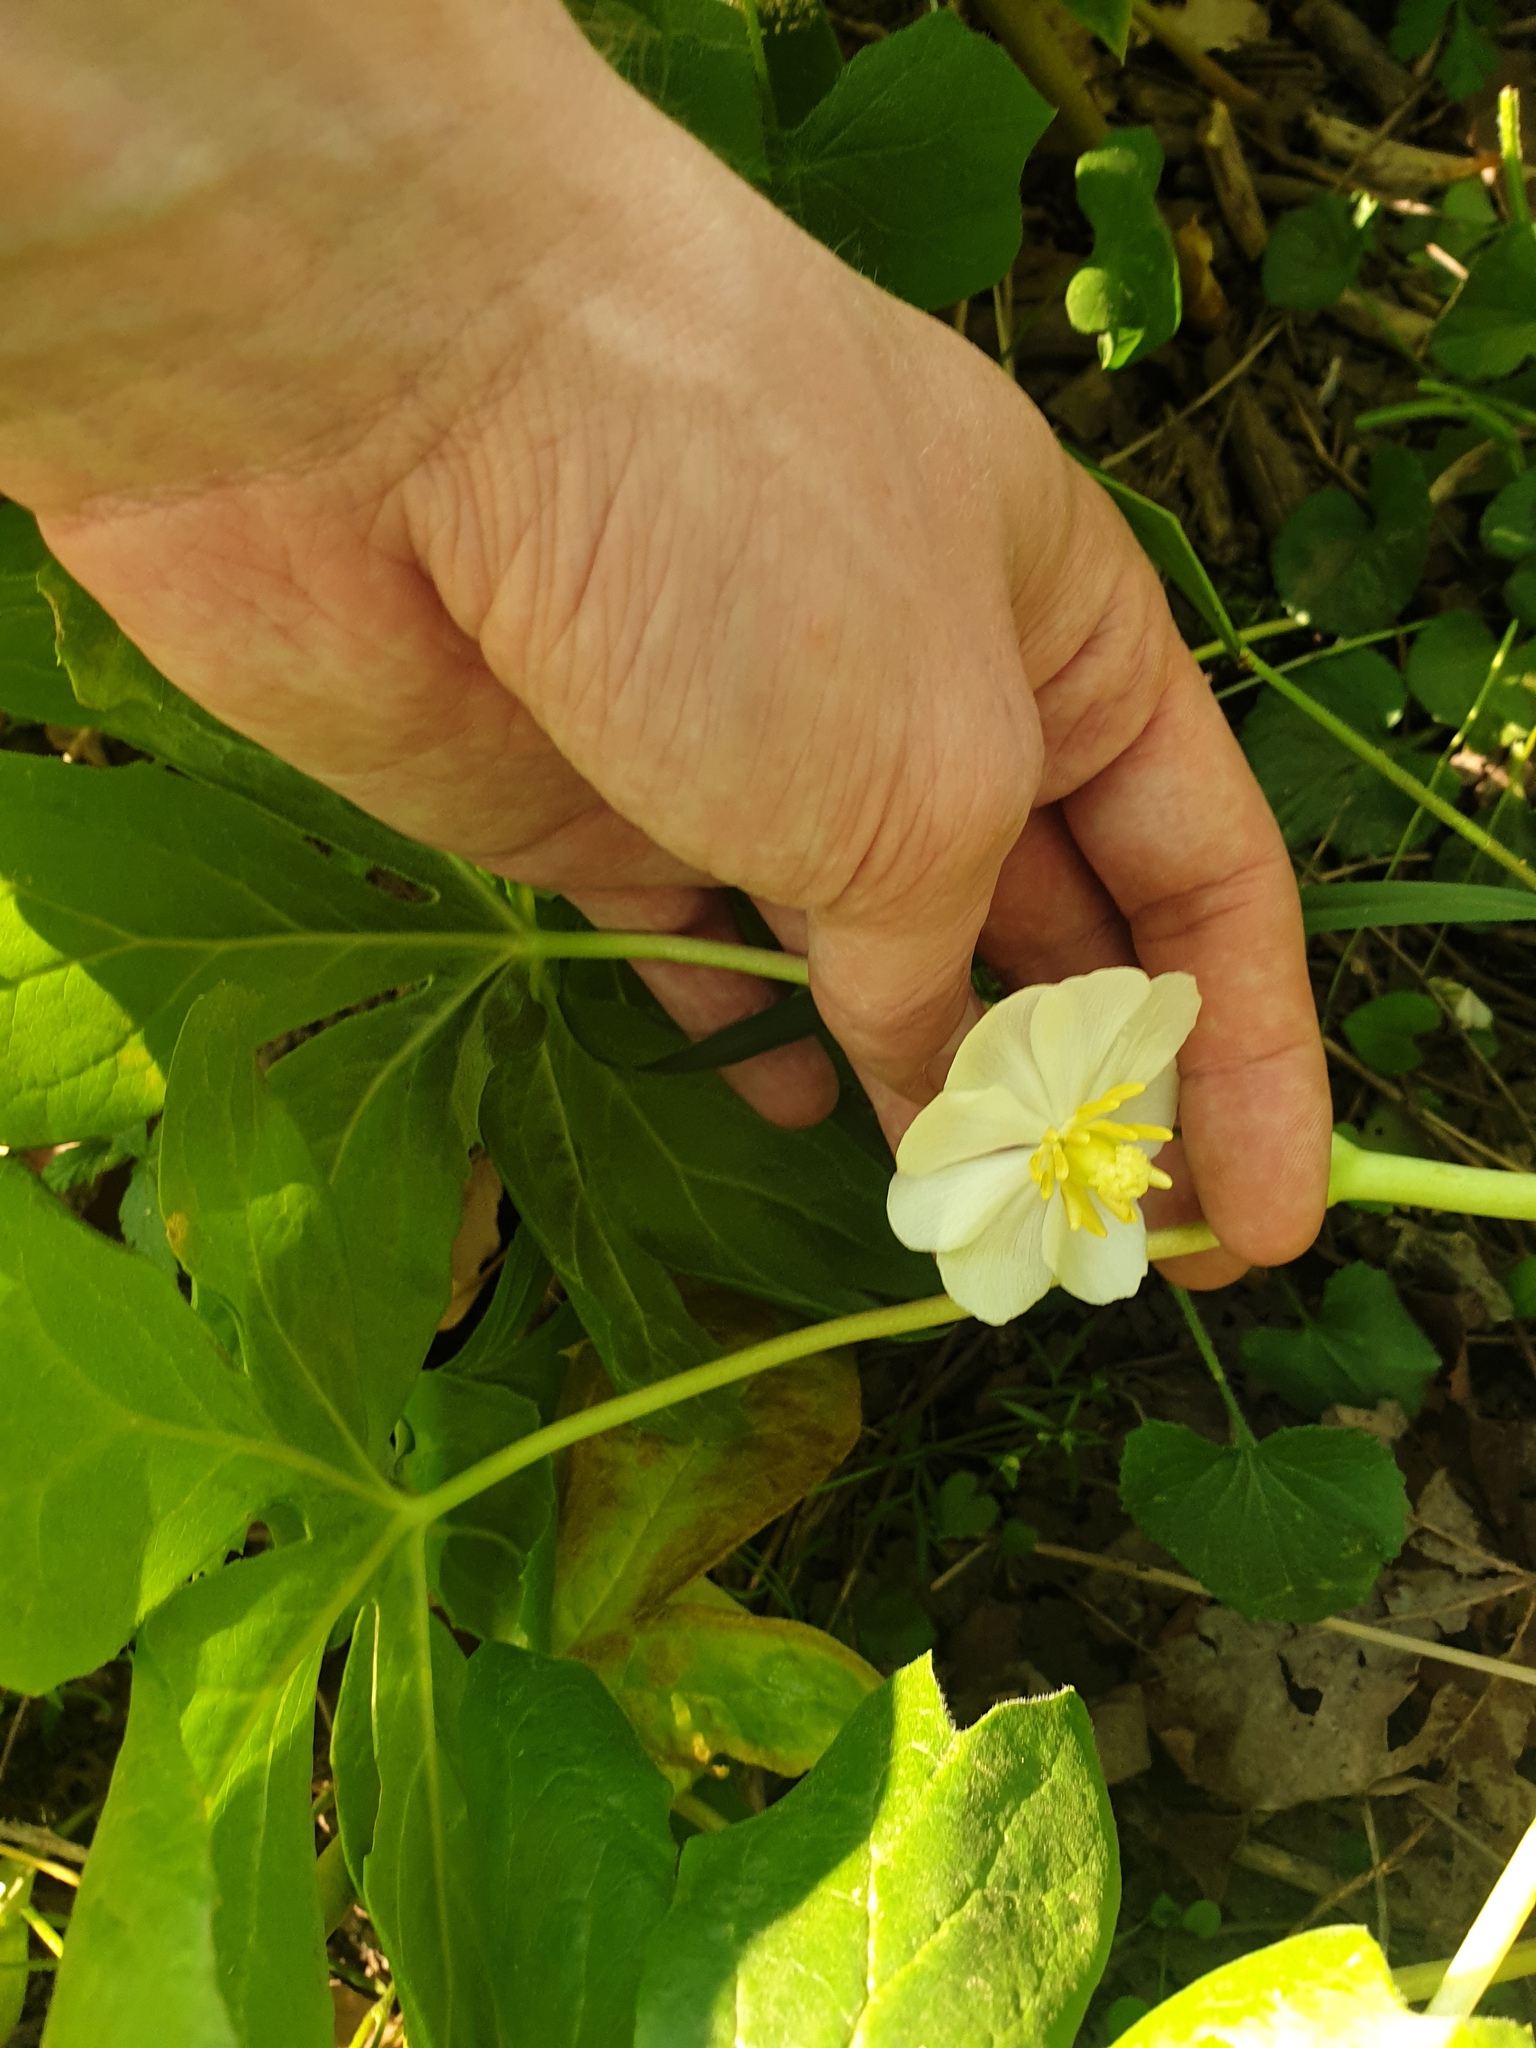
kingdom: Plantae
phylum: Tracheophyta
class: Magnoliopsida
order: Ranunculales
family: Berberidaceae
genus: Podophyllum
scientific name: Podophyllum peltatum
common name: Wild mandrake
